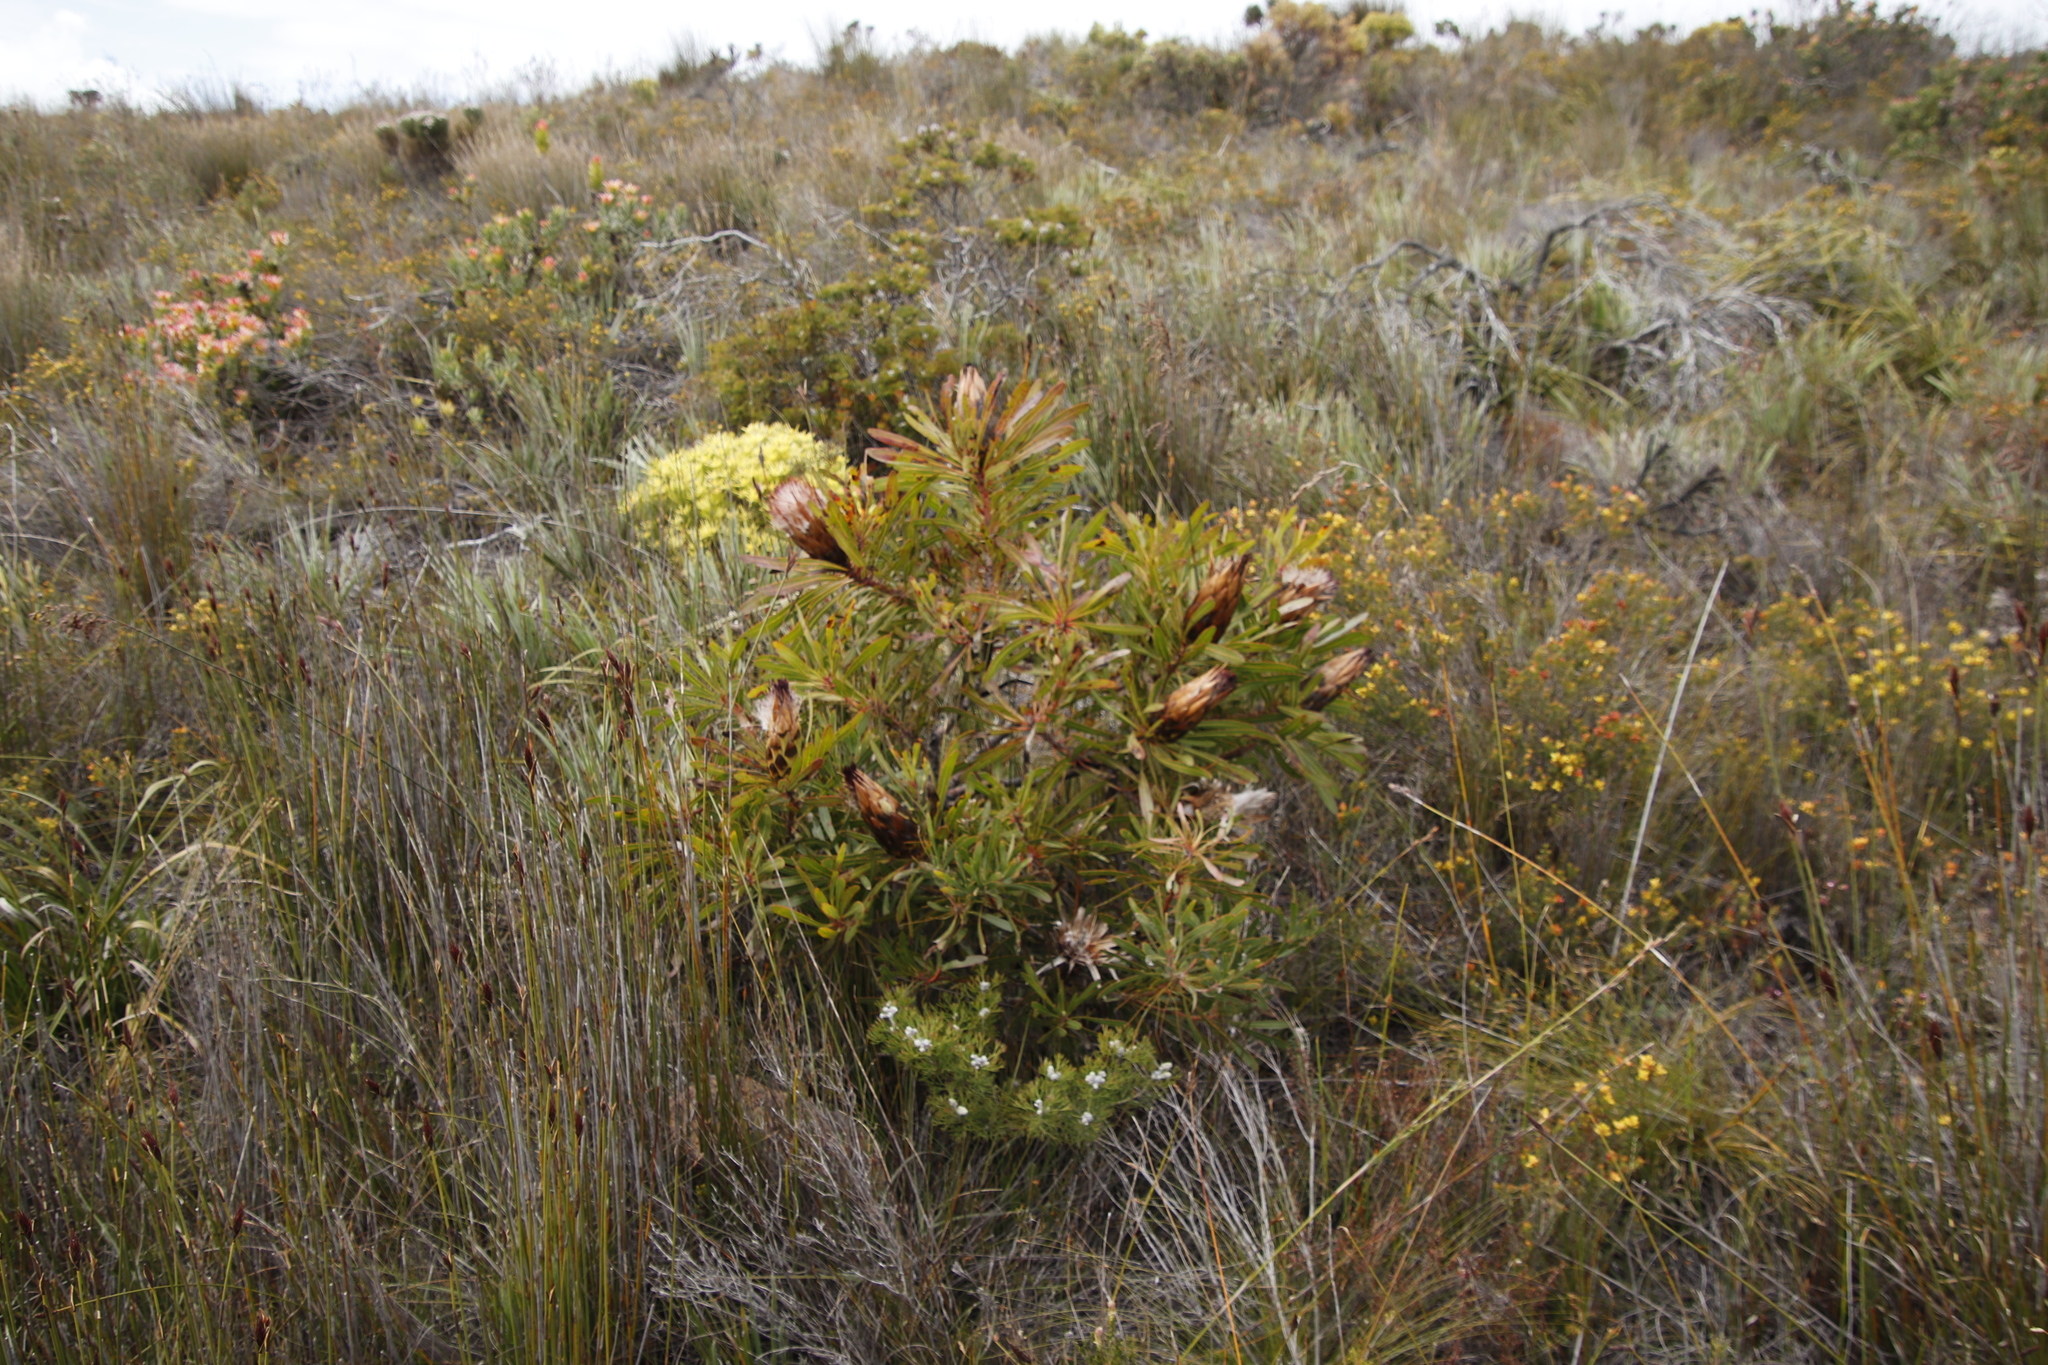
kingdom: Plantae
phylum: Tracheophyta
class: Magnoliopsida
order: Proteales
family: Proteaceae
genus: Protea
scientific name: Protea longifolia
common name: Long-leaf sugarbush
